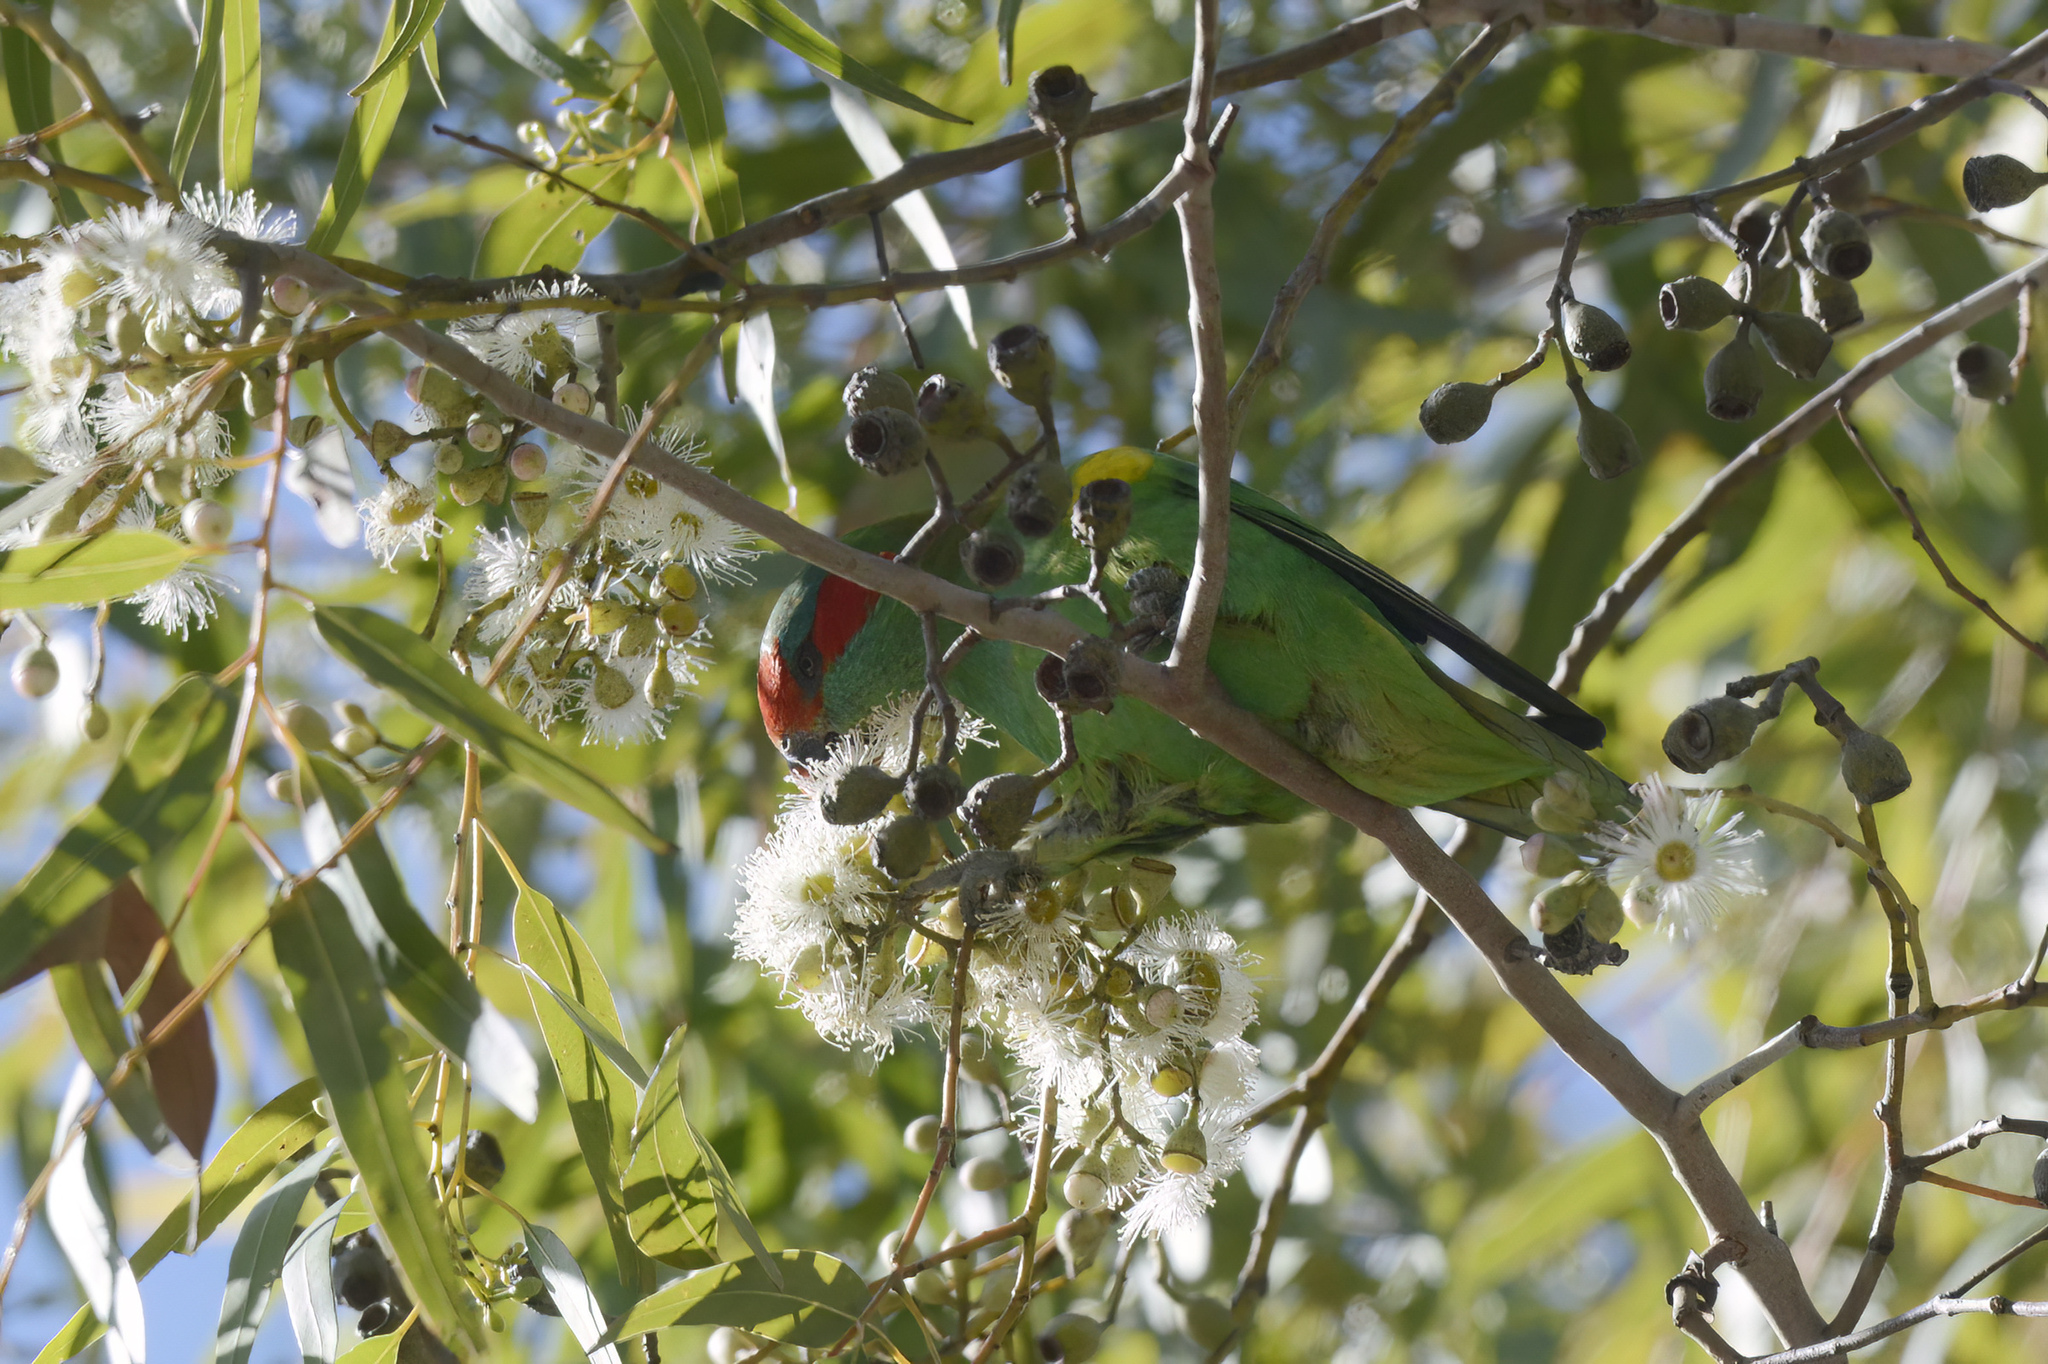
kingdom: Animalia
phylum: Chordata
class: Aves
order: Psittaciformes
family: Psittacidae
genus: Glossopsitta
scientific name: Glossopsitta concinna
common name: Musk lorikeet
